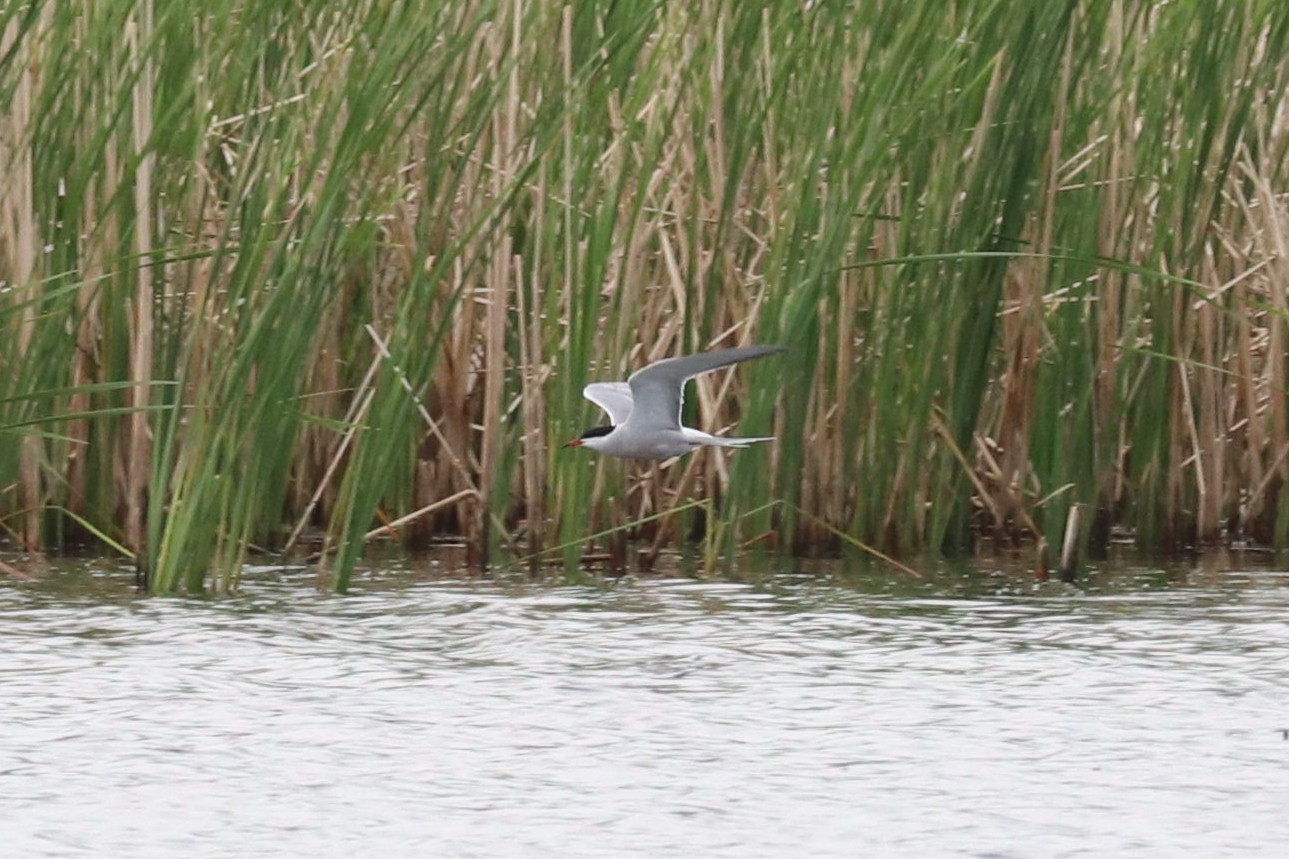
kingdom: Animalia
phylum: Chordata
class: Aves
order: Charadriiformes
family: Laridae
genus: Sterna
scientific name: Sterna hirundo
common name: Common tern
